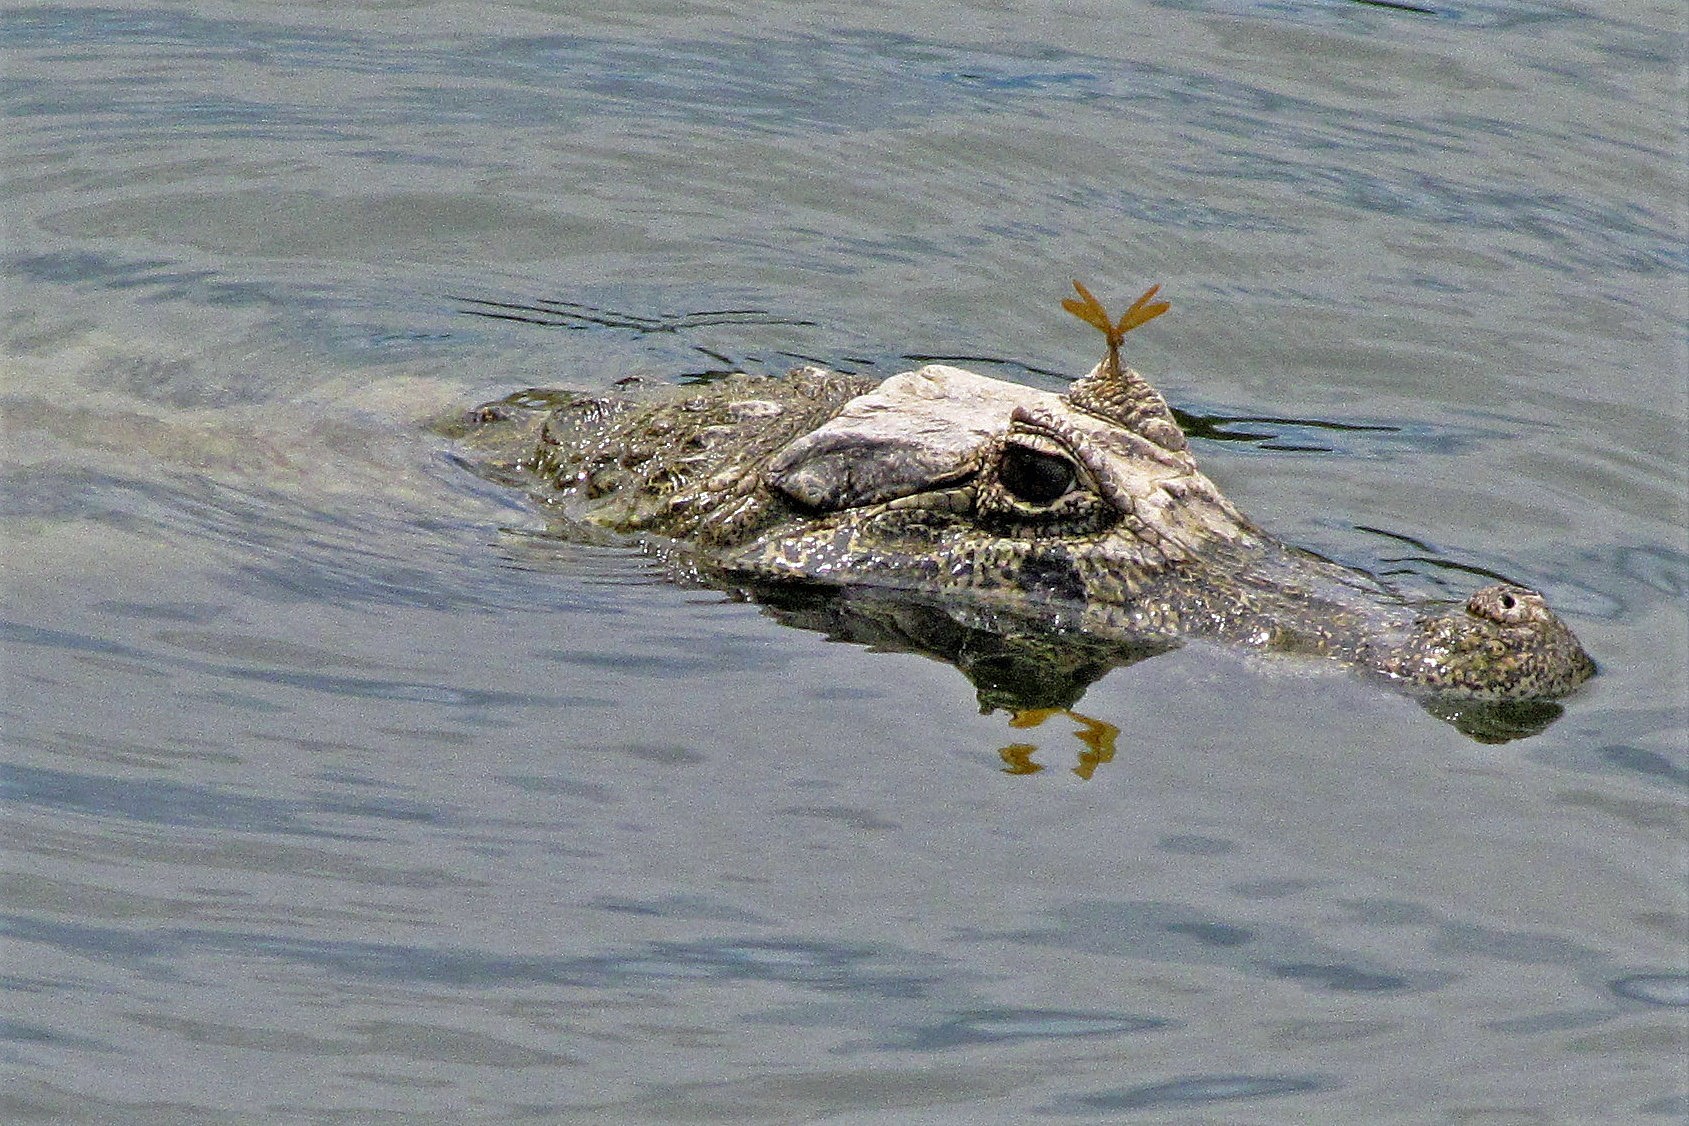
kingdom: Animalia
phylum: Chordata
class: Crocodylia
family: Alligatoridae
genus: Caiman
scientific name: Caiman latirostris
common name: Broad-snouted caiman
